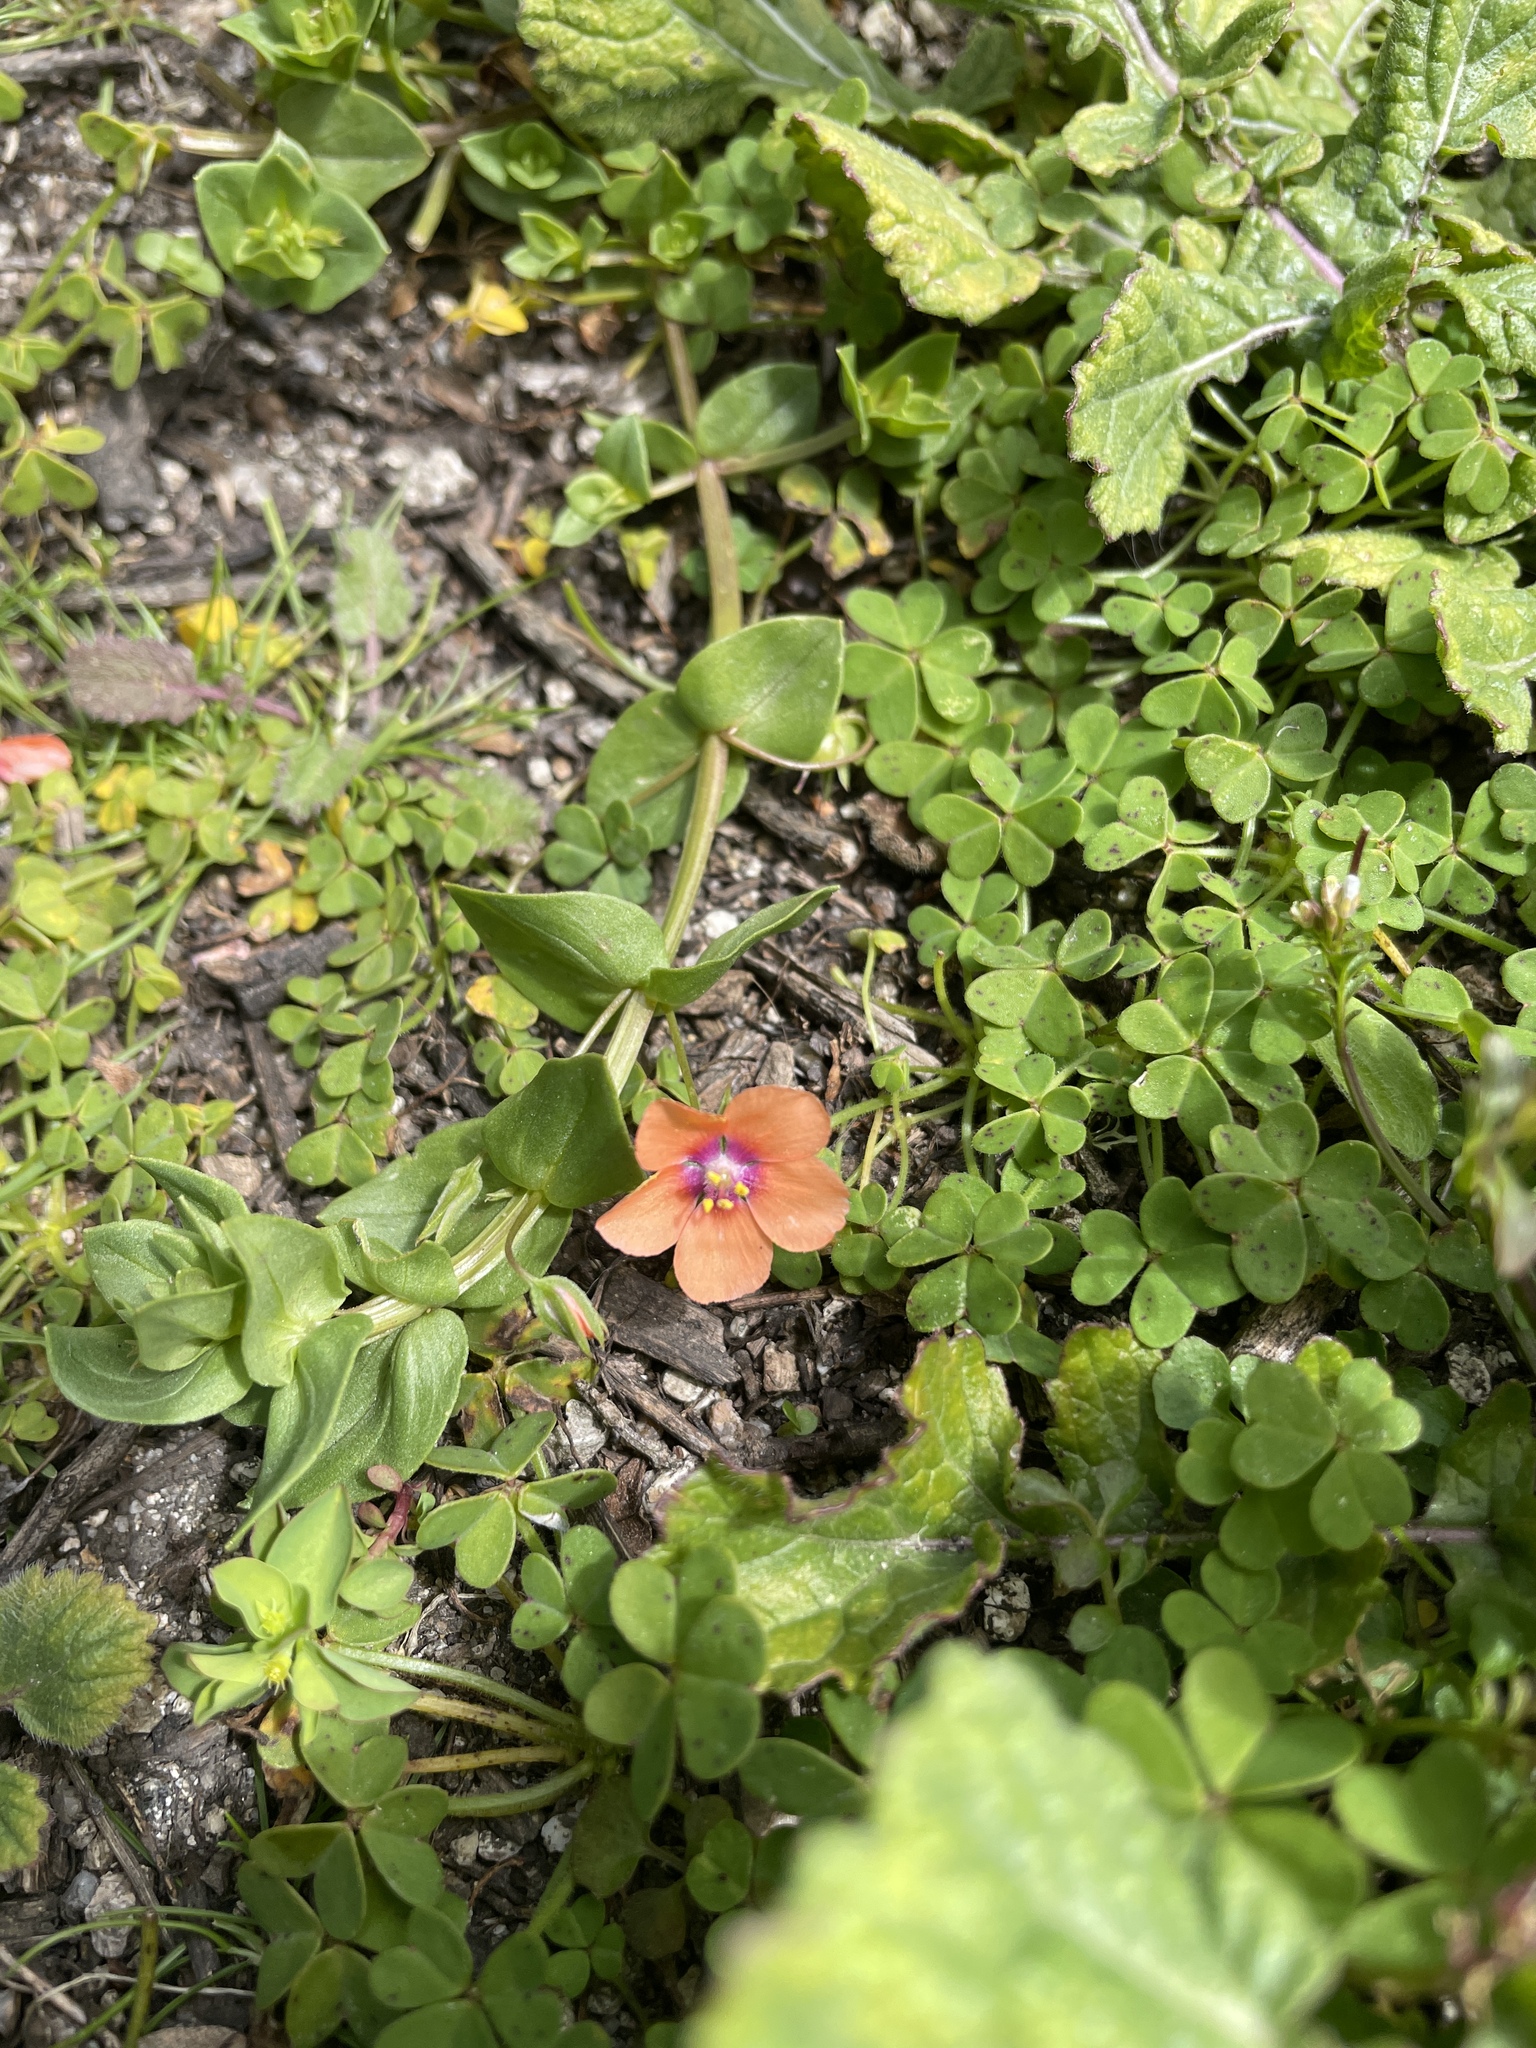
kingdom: Plantae
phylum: Tracheophyta
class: Magnoliopsida
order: Ericales
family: Primulaceae
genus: Lysimachia
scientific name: Lysimachia arvensis
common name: Scarlet pimpernel
